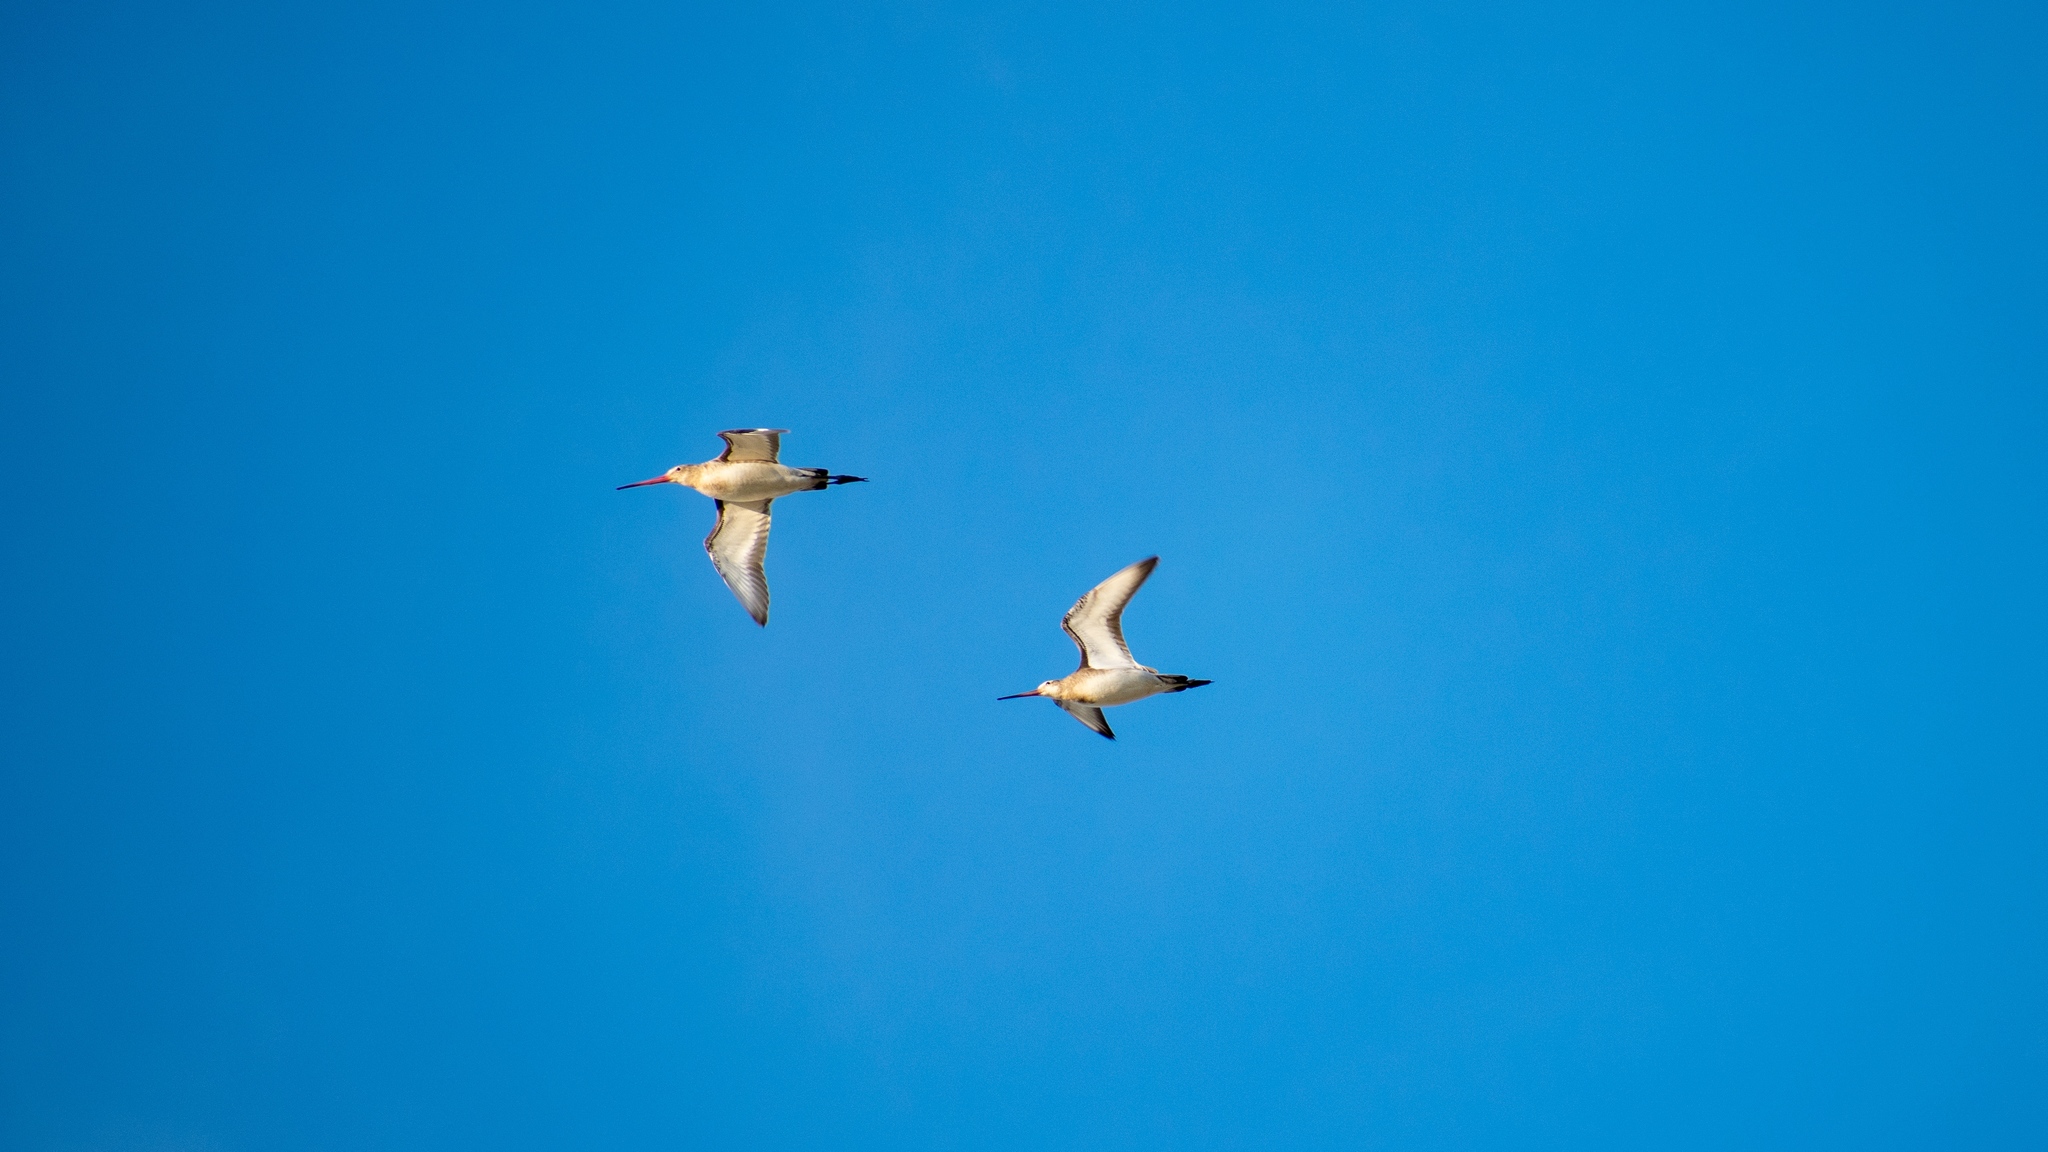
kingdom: Animalia
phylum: Chordata
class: Aves
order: Charadriiformes
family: Scolopacidae
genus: Limosa
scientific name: Limosa limosa
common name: Black-tailed godwit
